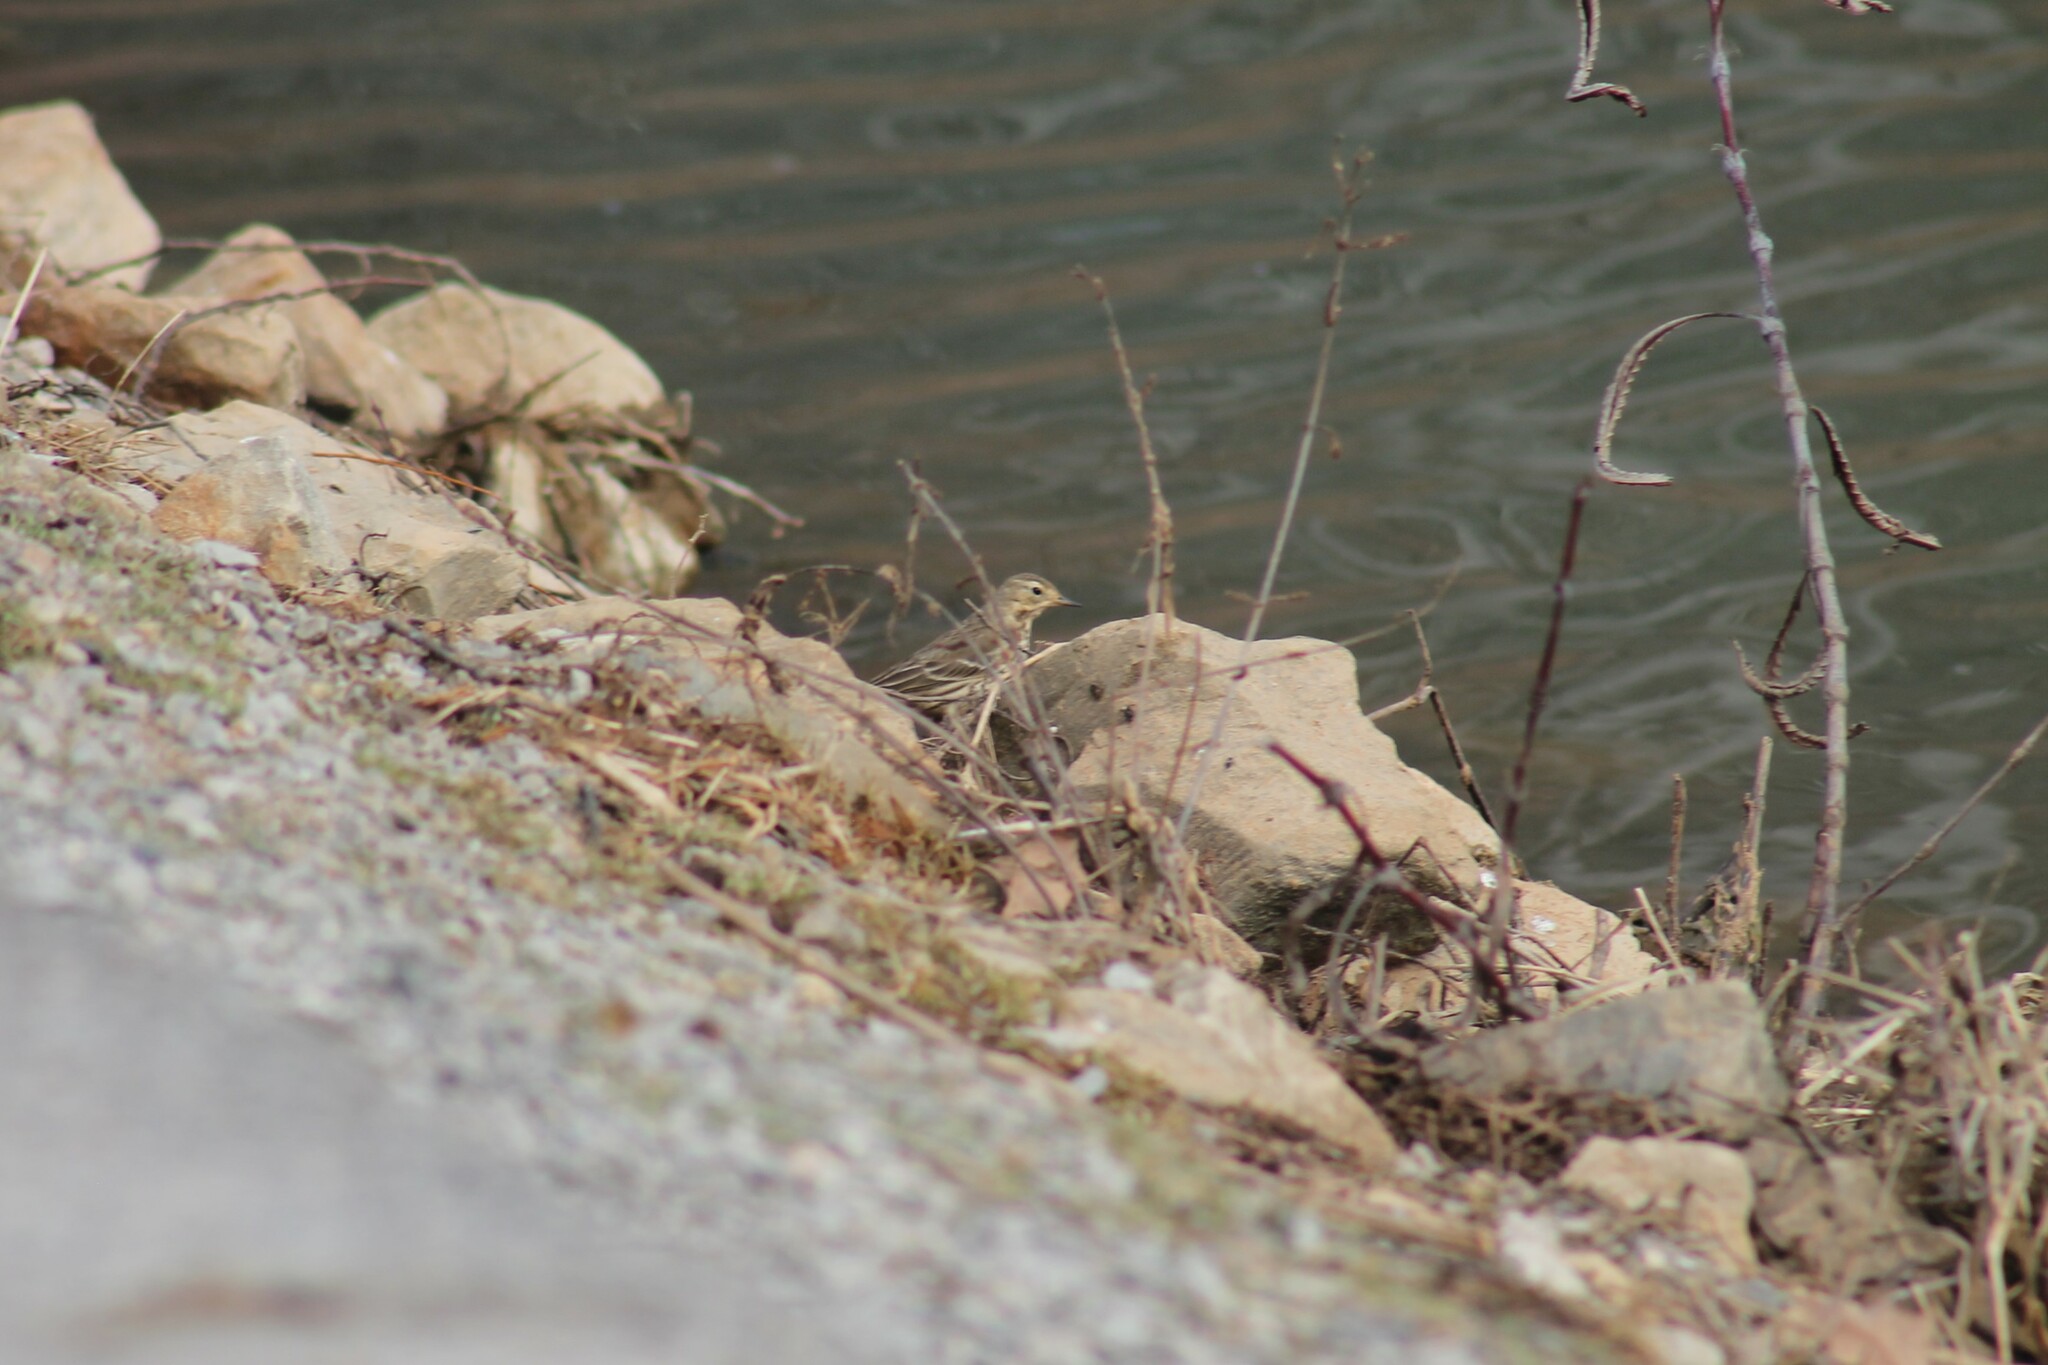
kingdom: Animalia
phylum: Chordata
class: Aves
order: Passeriformes
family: Motacillidae
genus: Anthus
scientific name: Anthus rubescens
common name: Buff-bellied pipit
